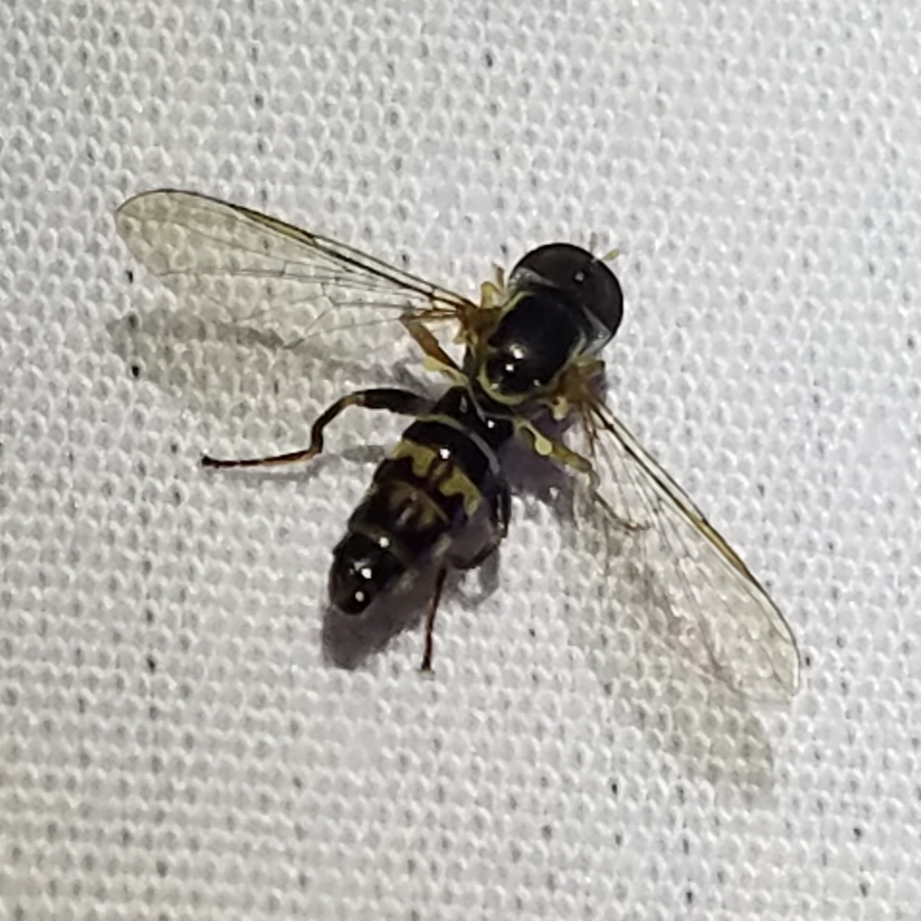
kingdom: Animalia
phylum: Arthropoda
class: Insecta
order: Diptera
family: Syrphidae
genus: Toxomerus
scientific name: Toxomerus geminatus
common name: Eastern calligrapher
